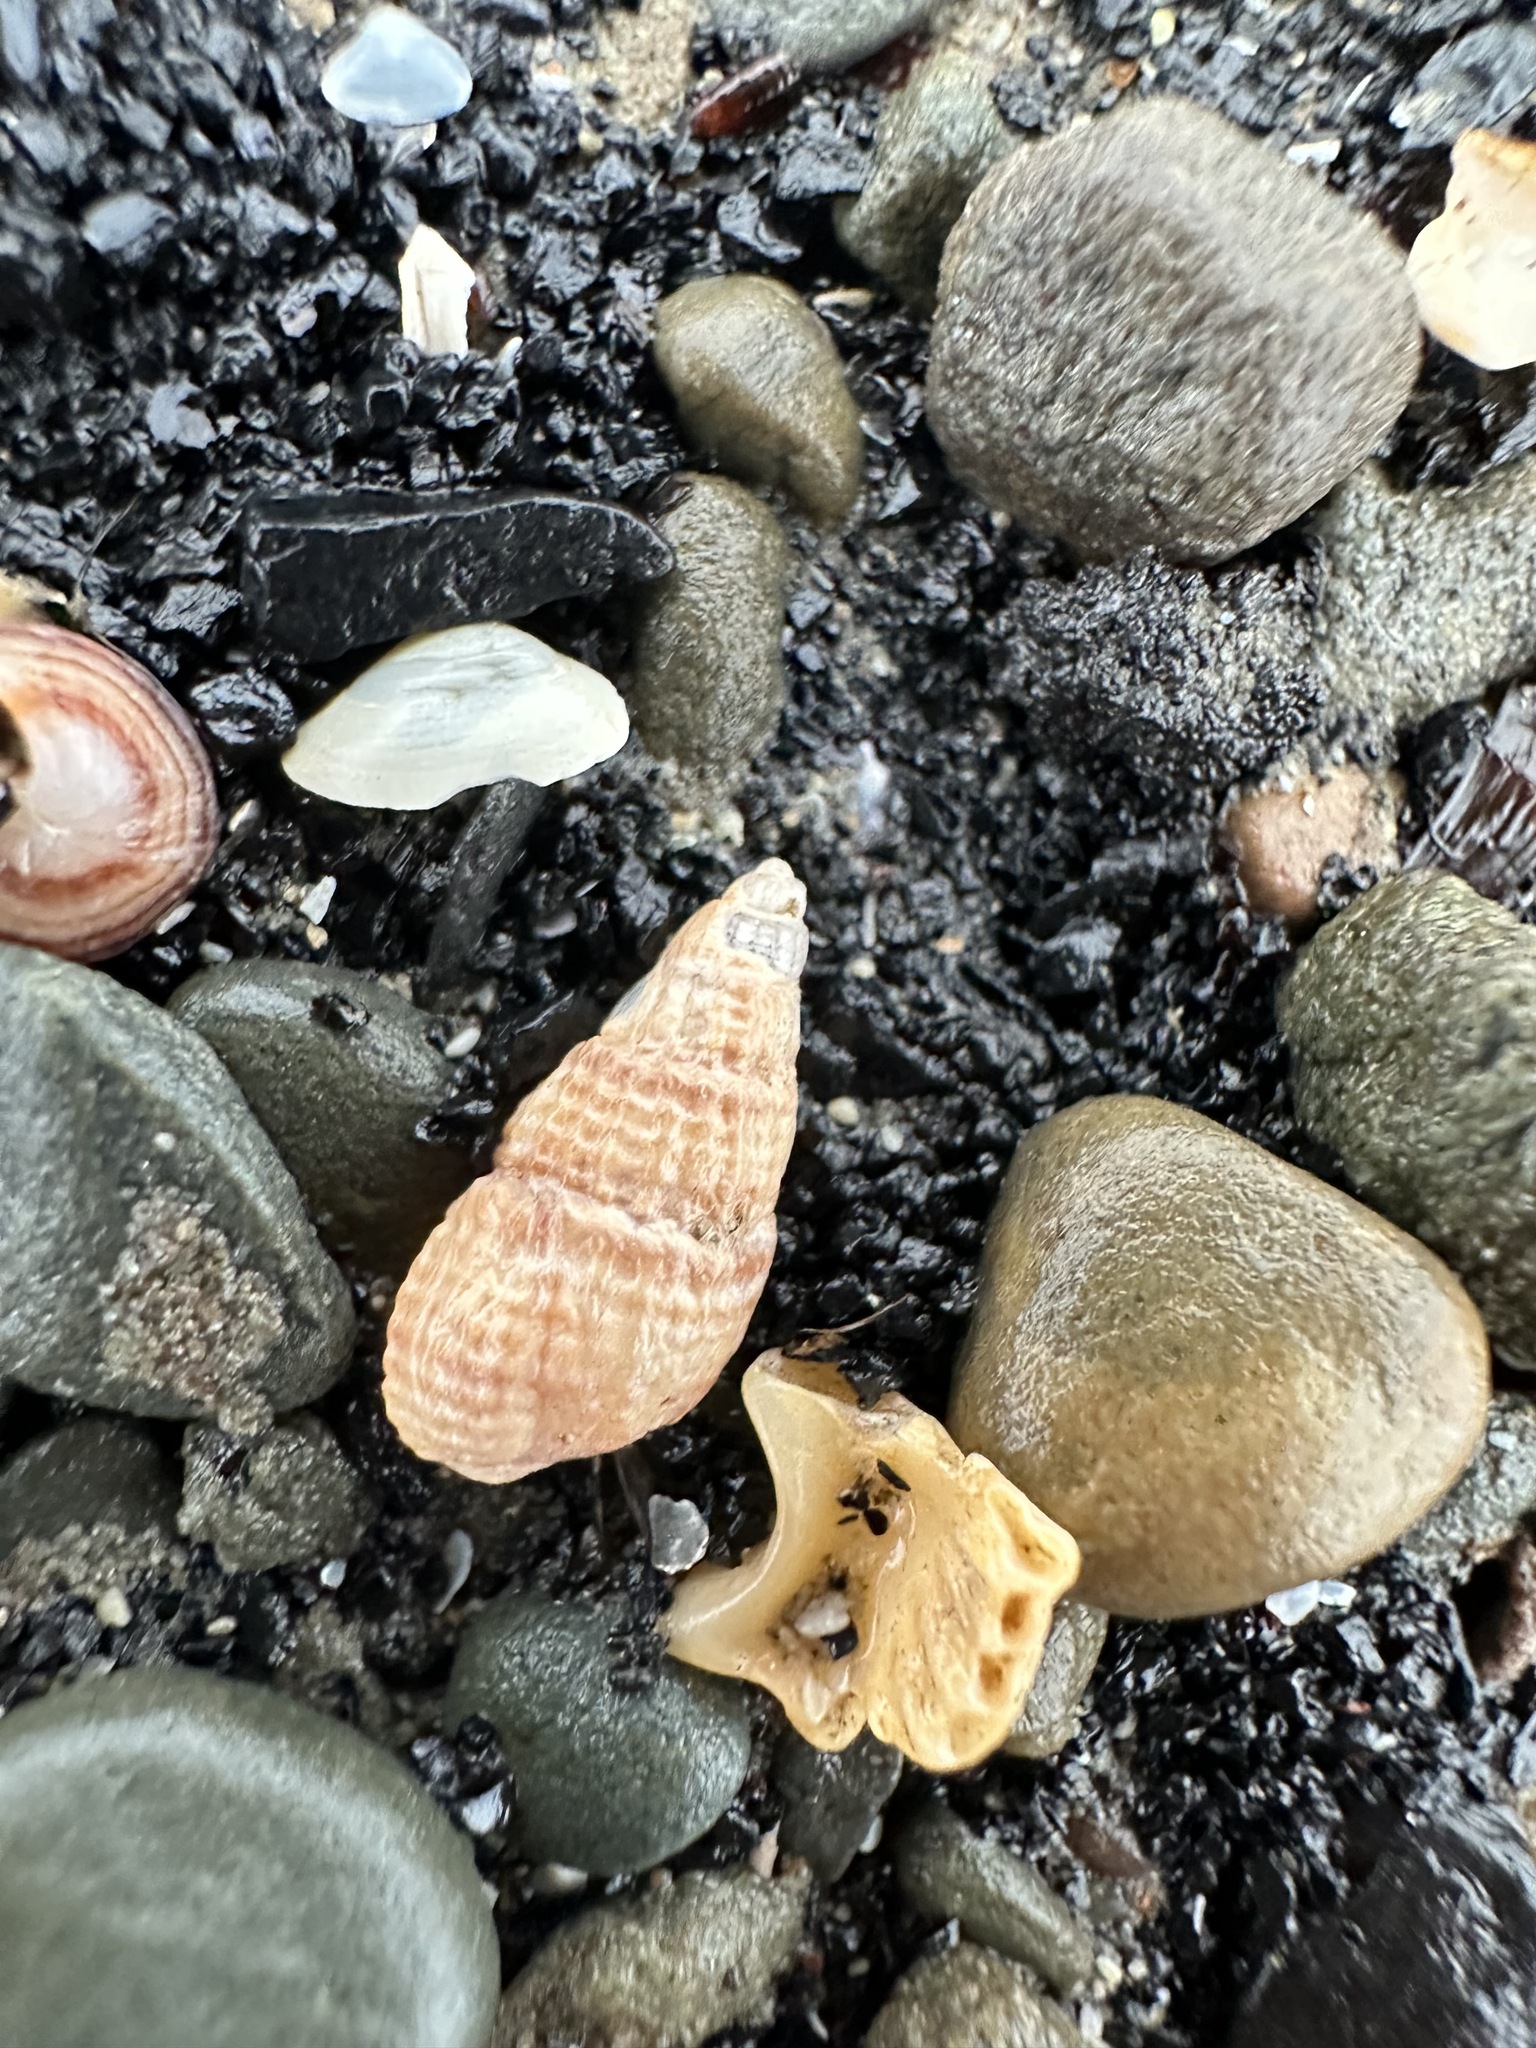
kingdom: Animalia
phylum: Mollusca
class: Gastropoda
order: Neogastropoda
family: Nassariidae
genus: Ilyanassa
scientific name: Ilyanassa trivittata
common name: Three-line mudsnail
